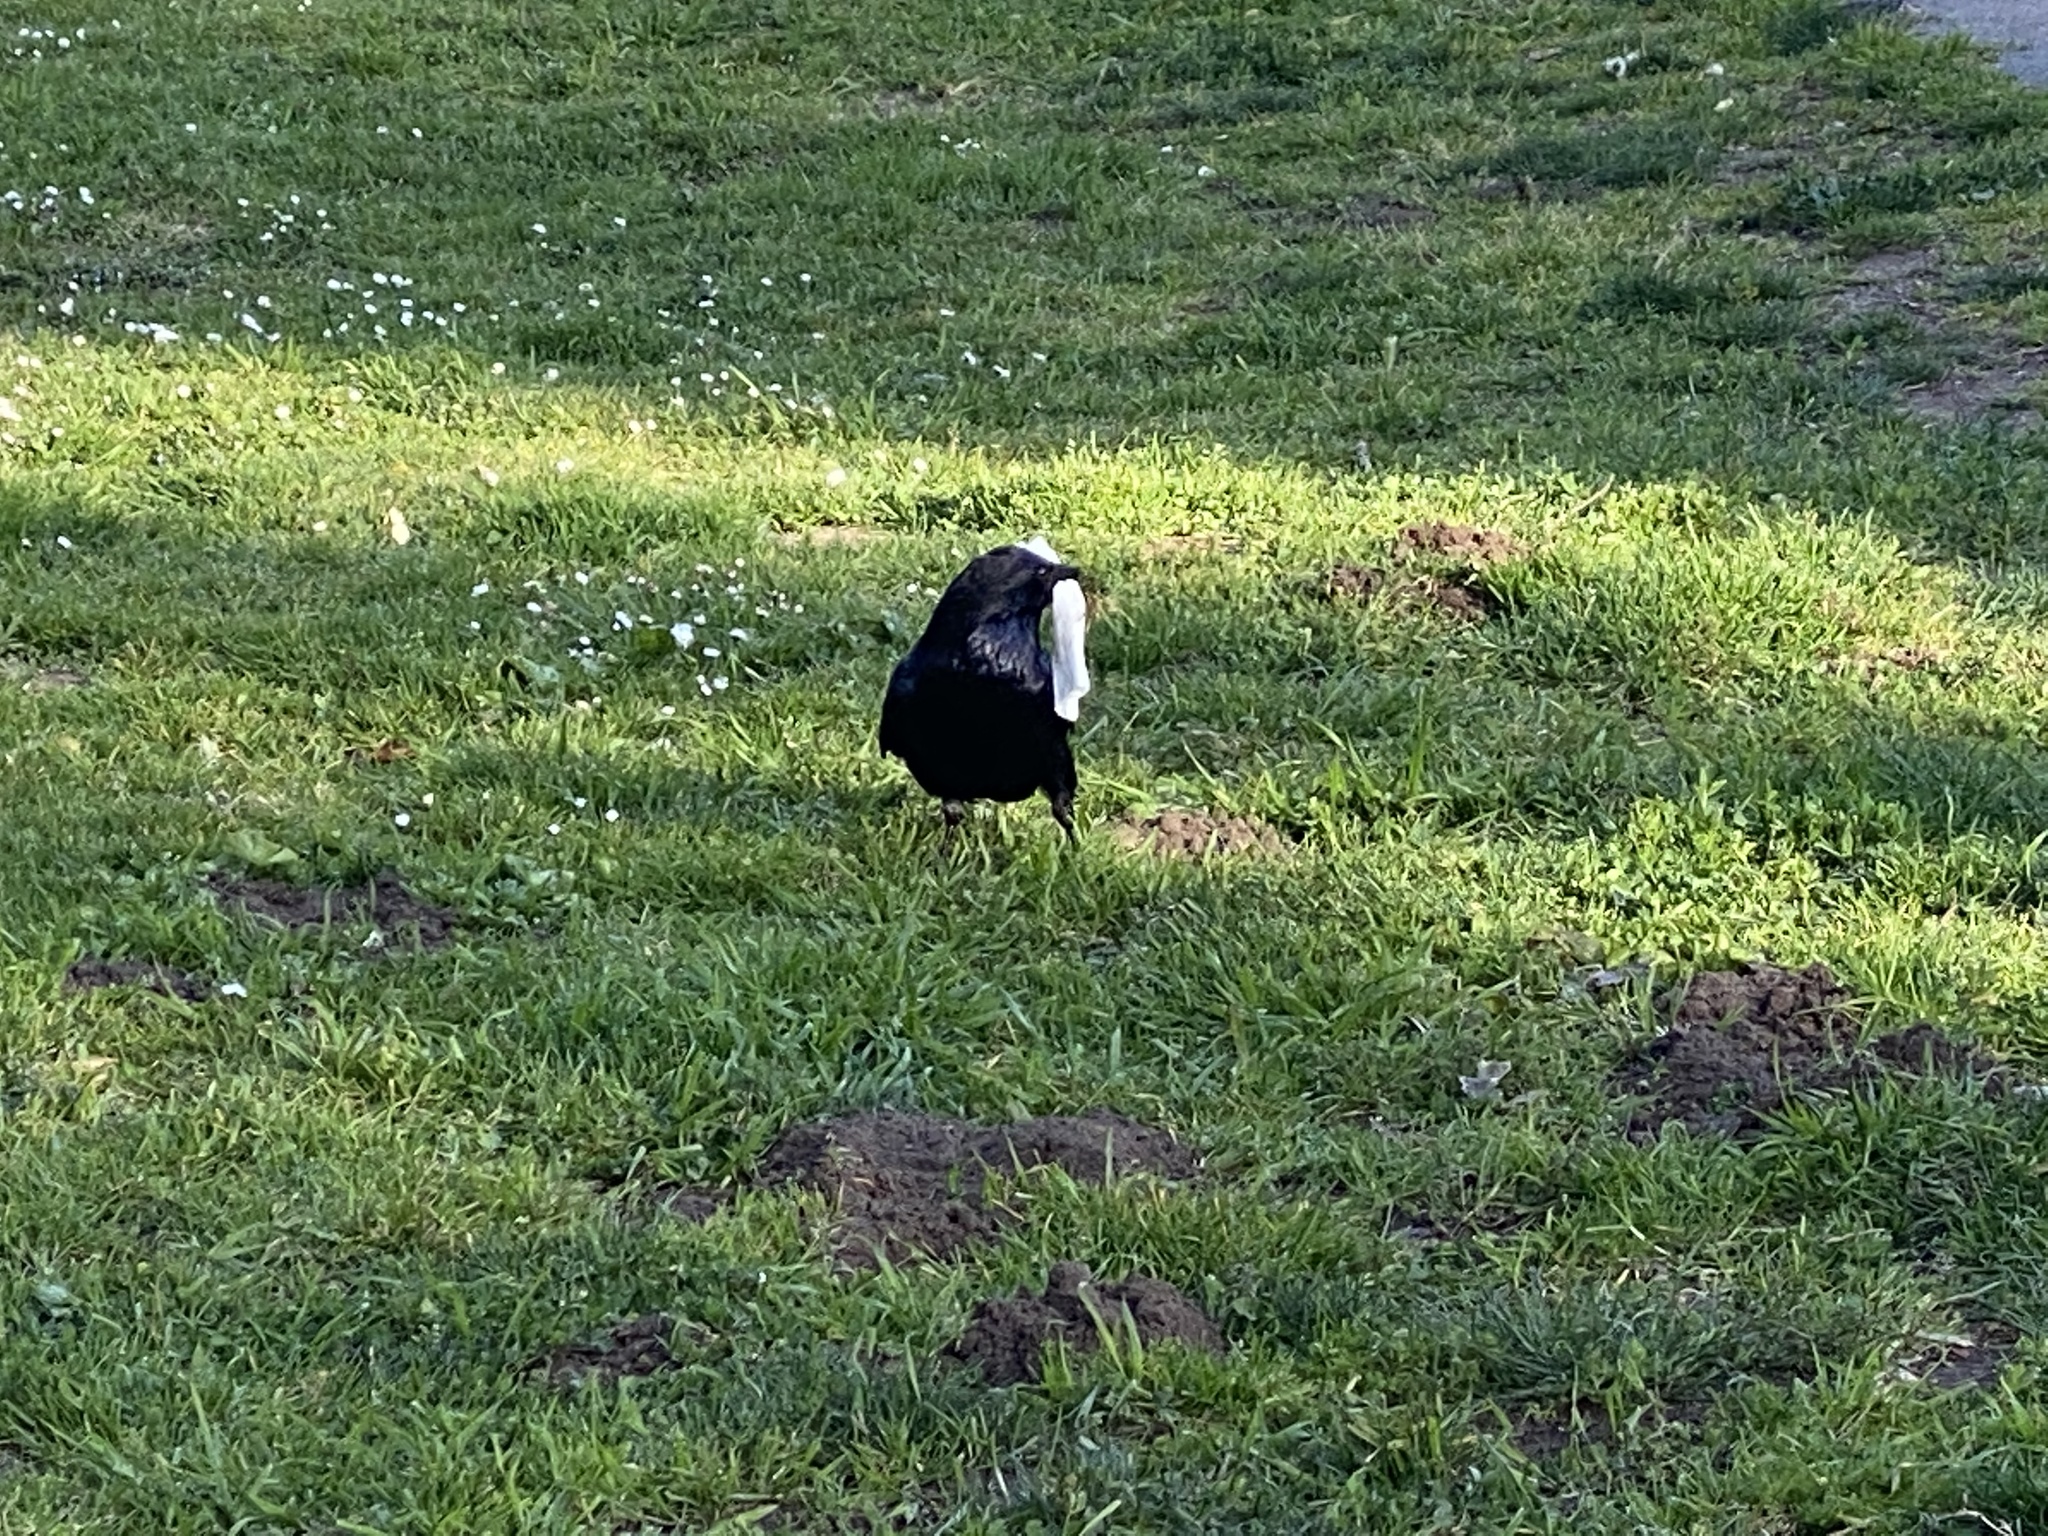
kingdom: Animalia
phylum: Chordata
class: Aves
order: Passeriformes
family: Corvidae
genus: Corvus
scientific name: Corvus corax
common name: Common raven
